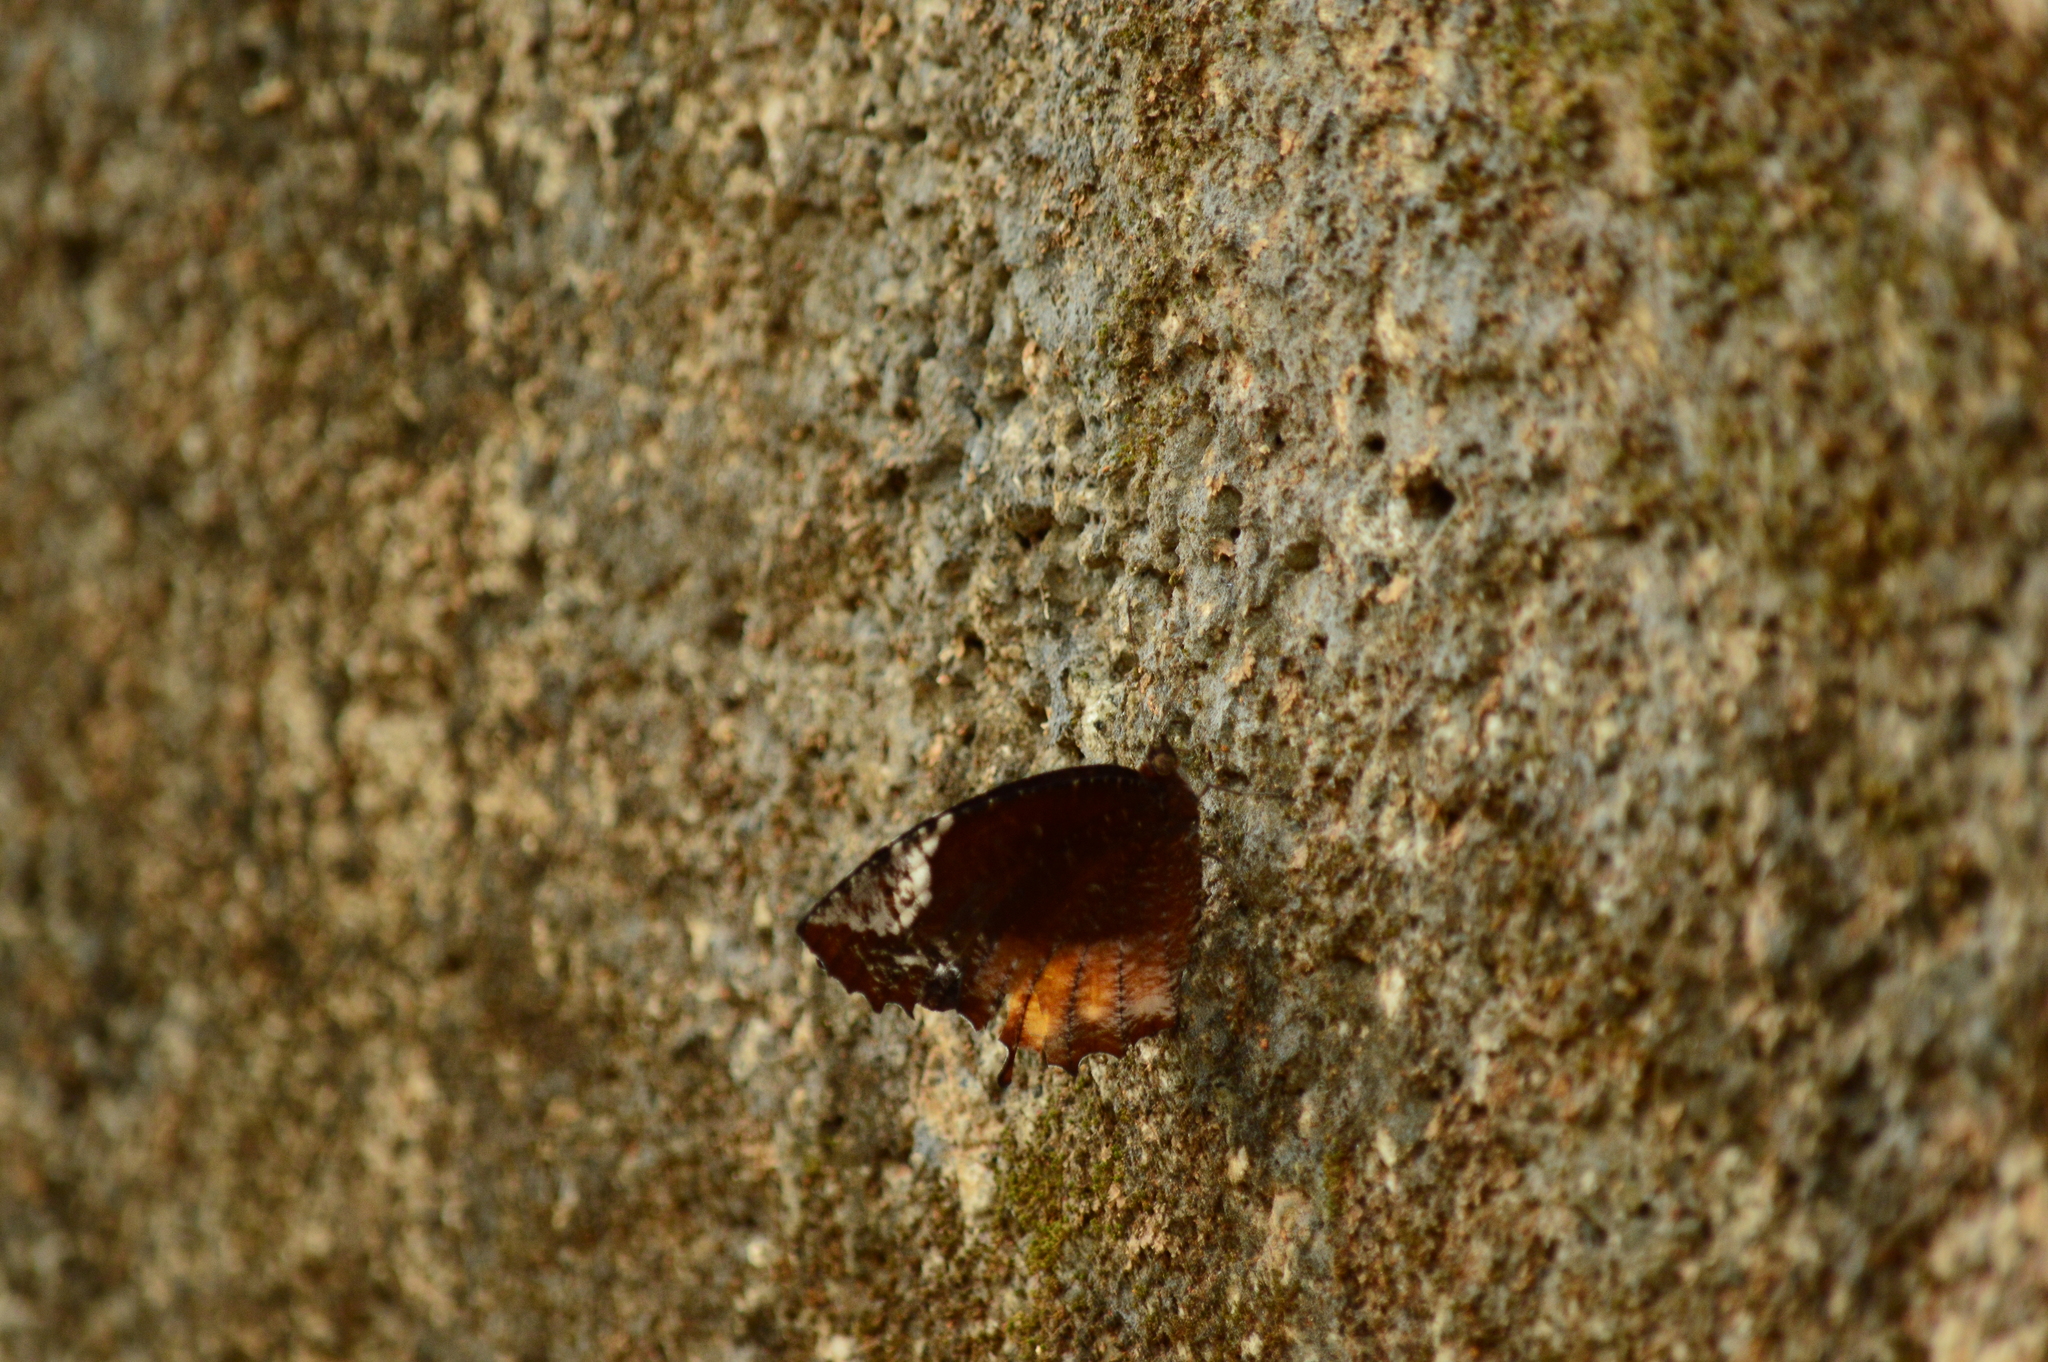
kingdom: Animalia
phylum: Arthropoda
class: Insecta
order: Lepidoptera
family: Nymphalidae
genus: Elymnias
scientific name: Elymnias caudata
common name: Tailed palmfly
